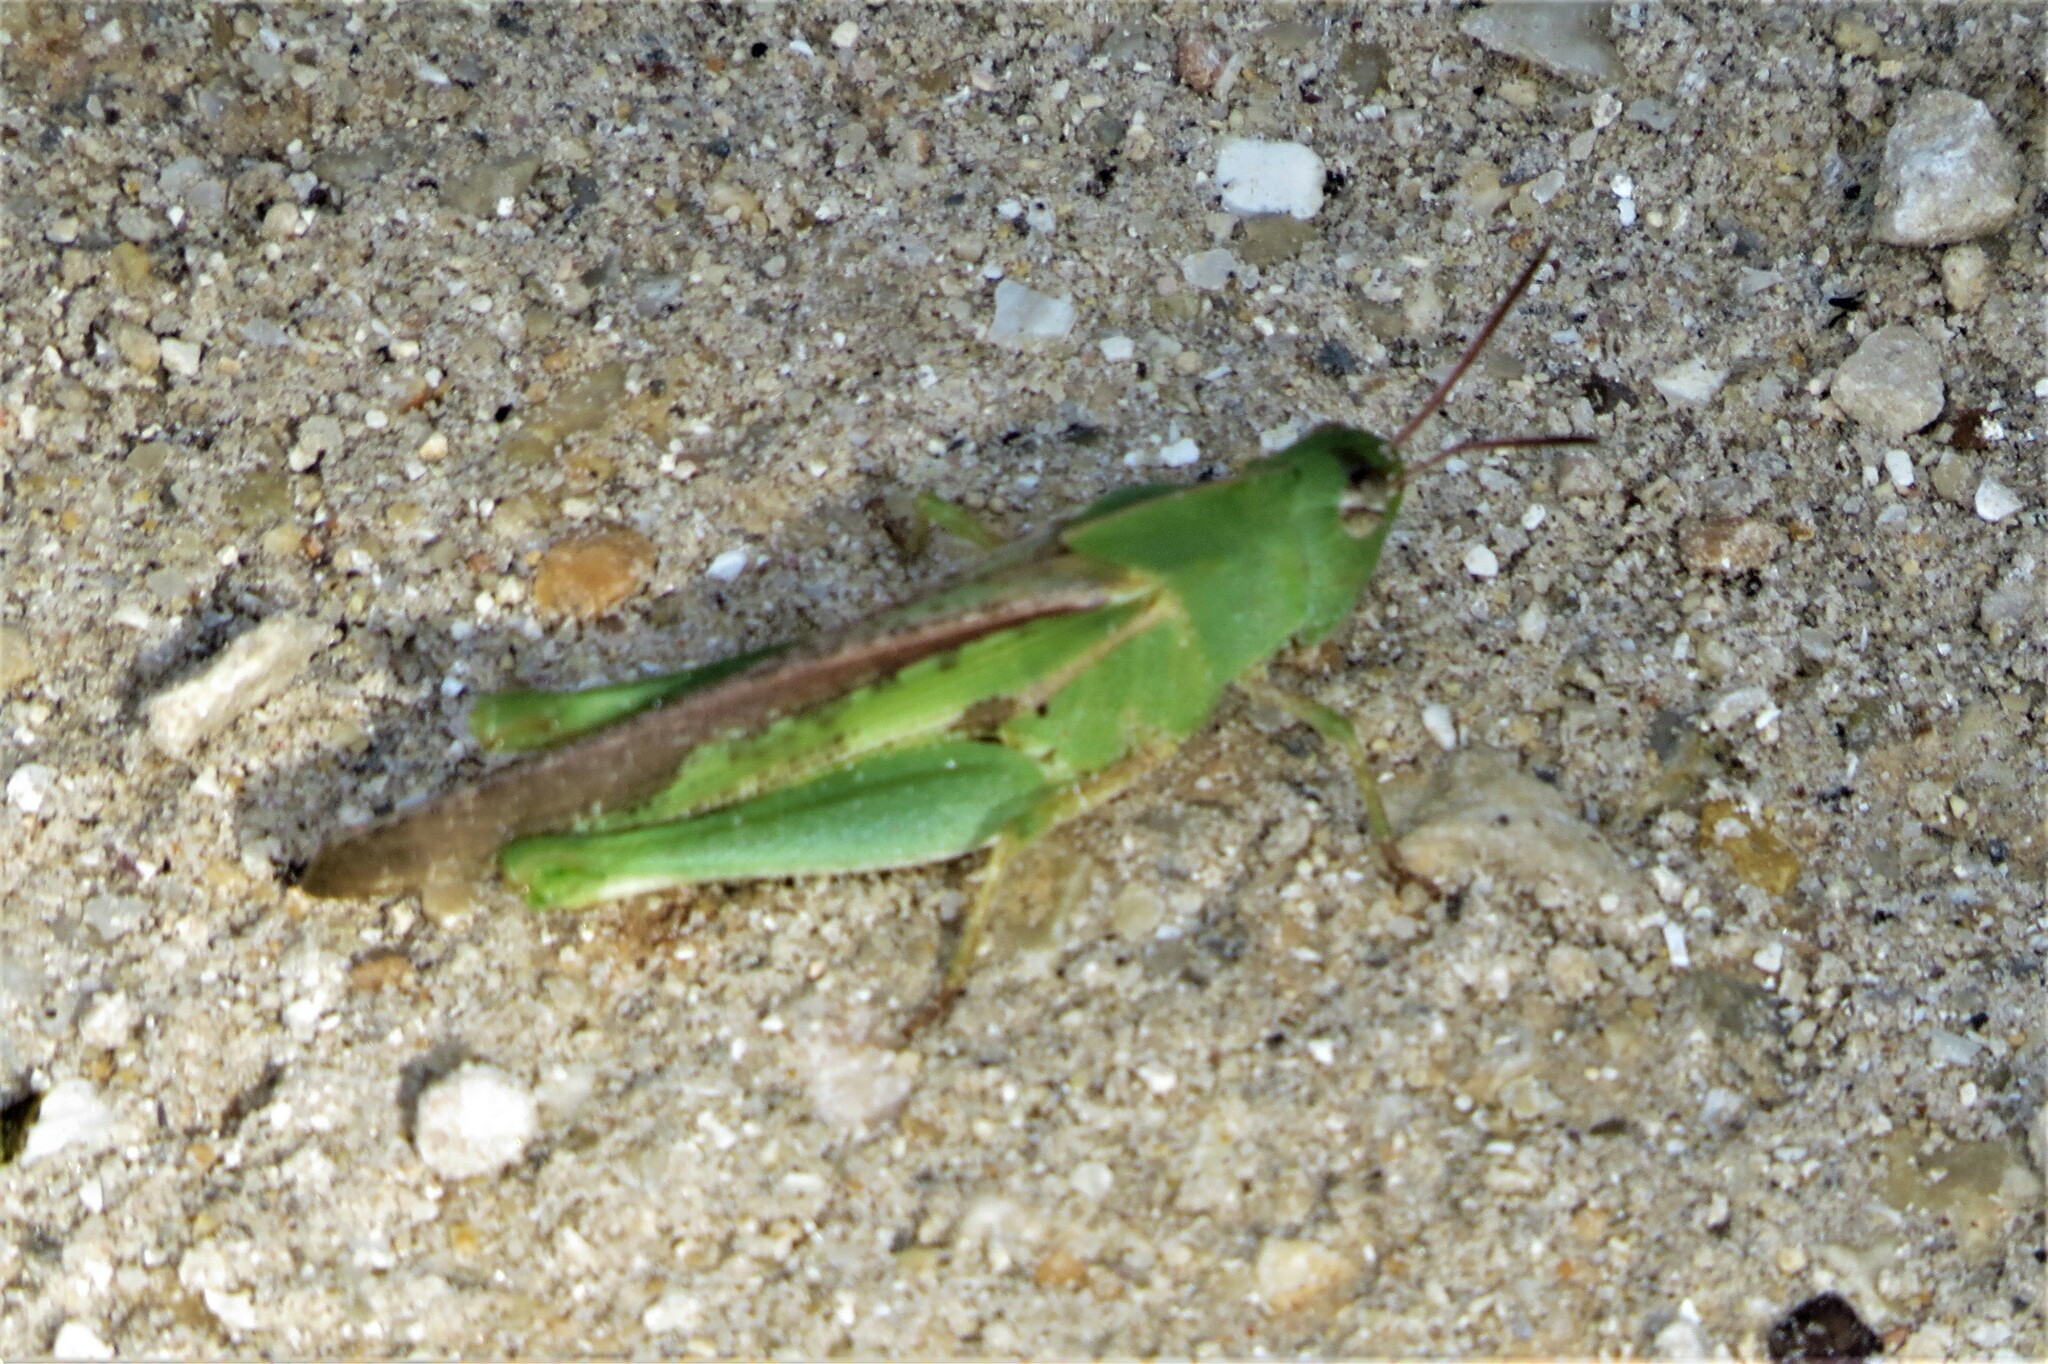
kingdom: Animalia
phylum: Arthropoda
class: Insecta
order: Orthoptera
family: Acrididae
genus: Chortophaga
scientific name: Chortophaga viridifasciata
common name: Green-striped grasshopper
